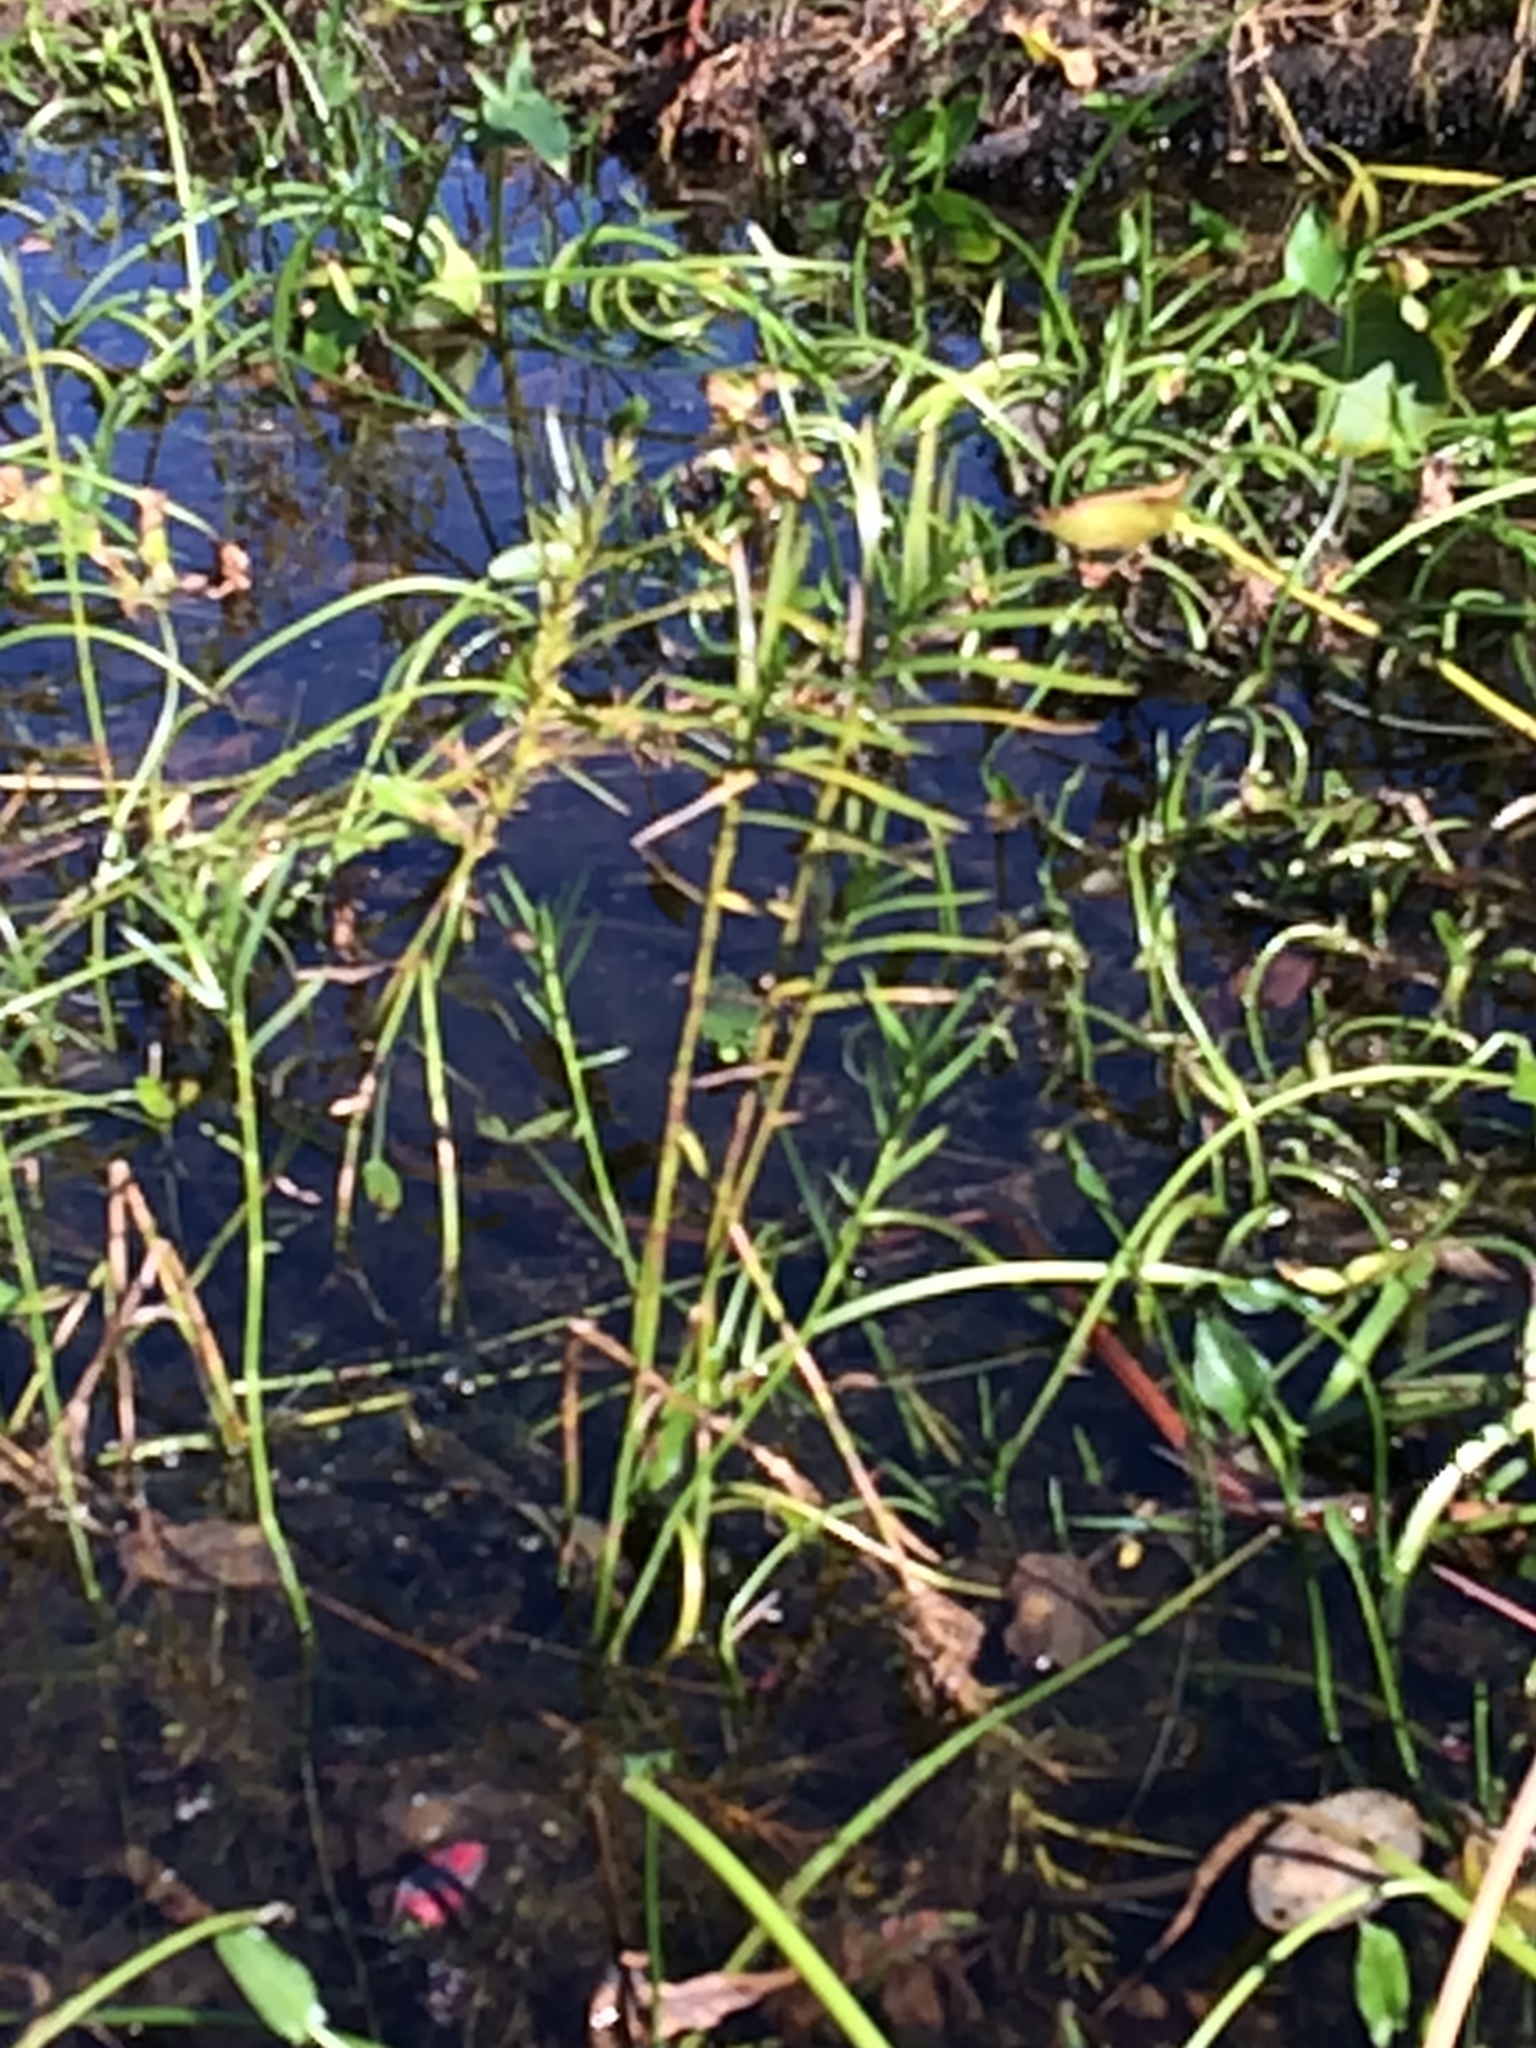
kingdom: Plantae
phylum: Tracheophyta
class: Liliopsida
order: Poales
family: Cyperaceae
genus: Dulichium
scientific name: Dulichium arundinaceum
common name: Three-way sedge
